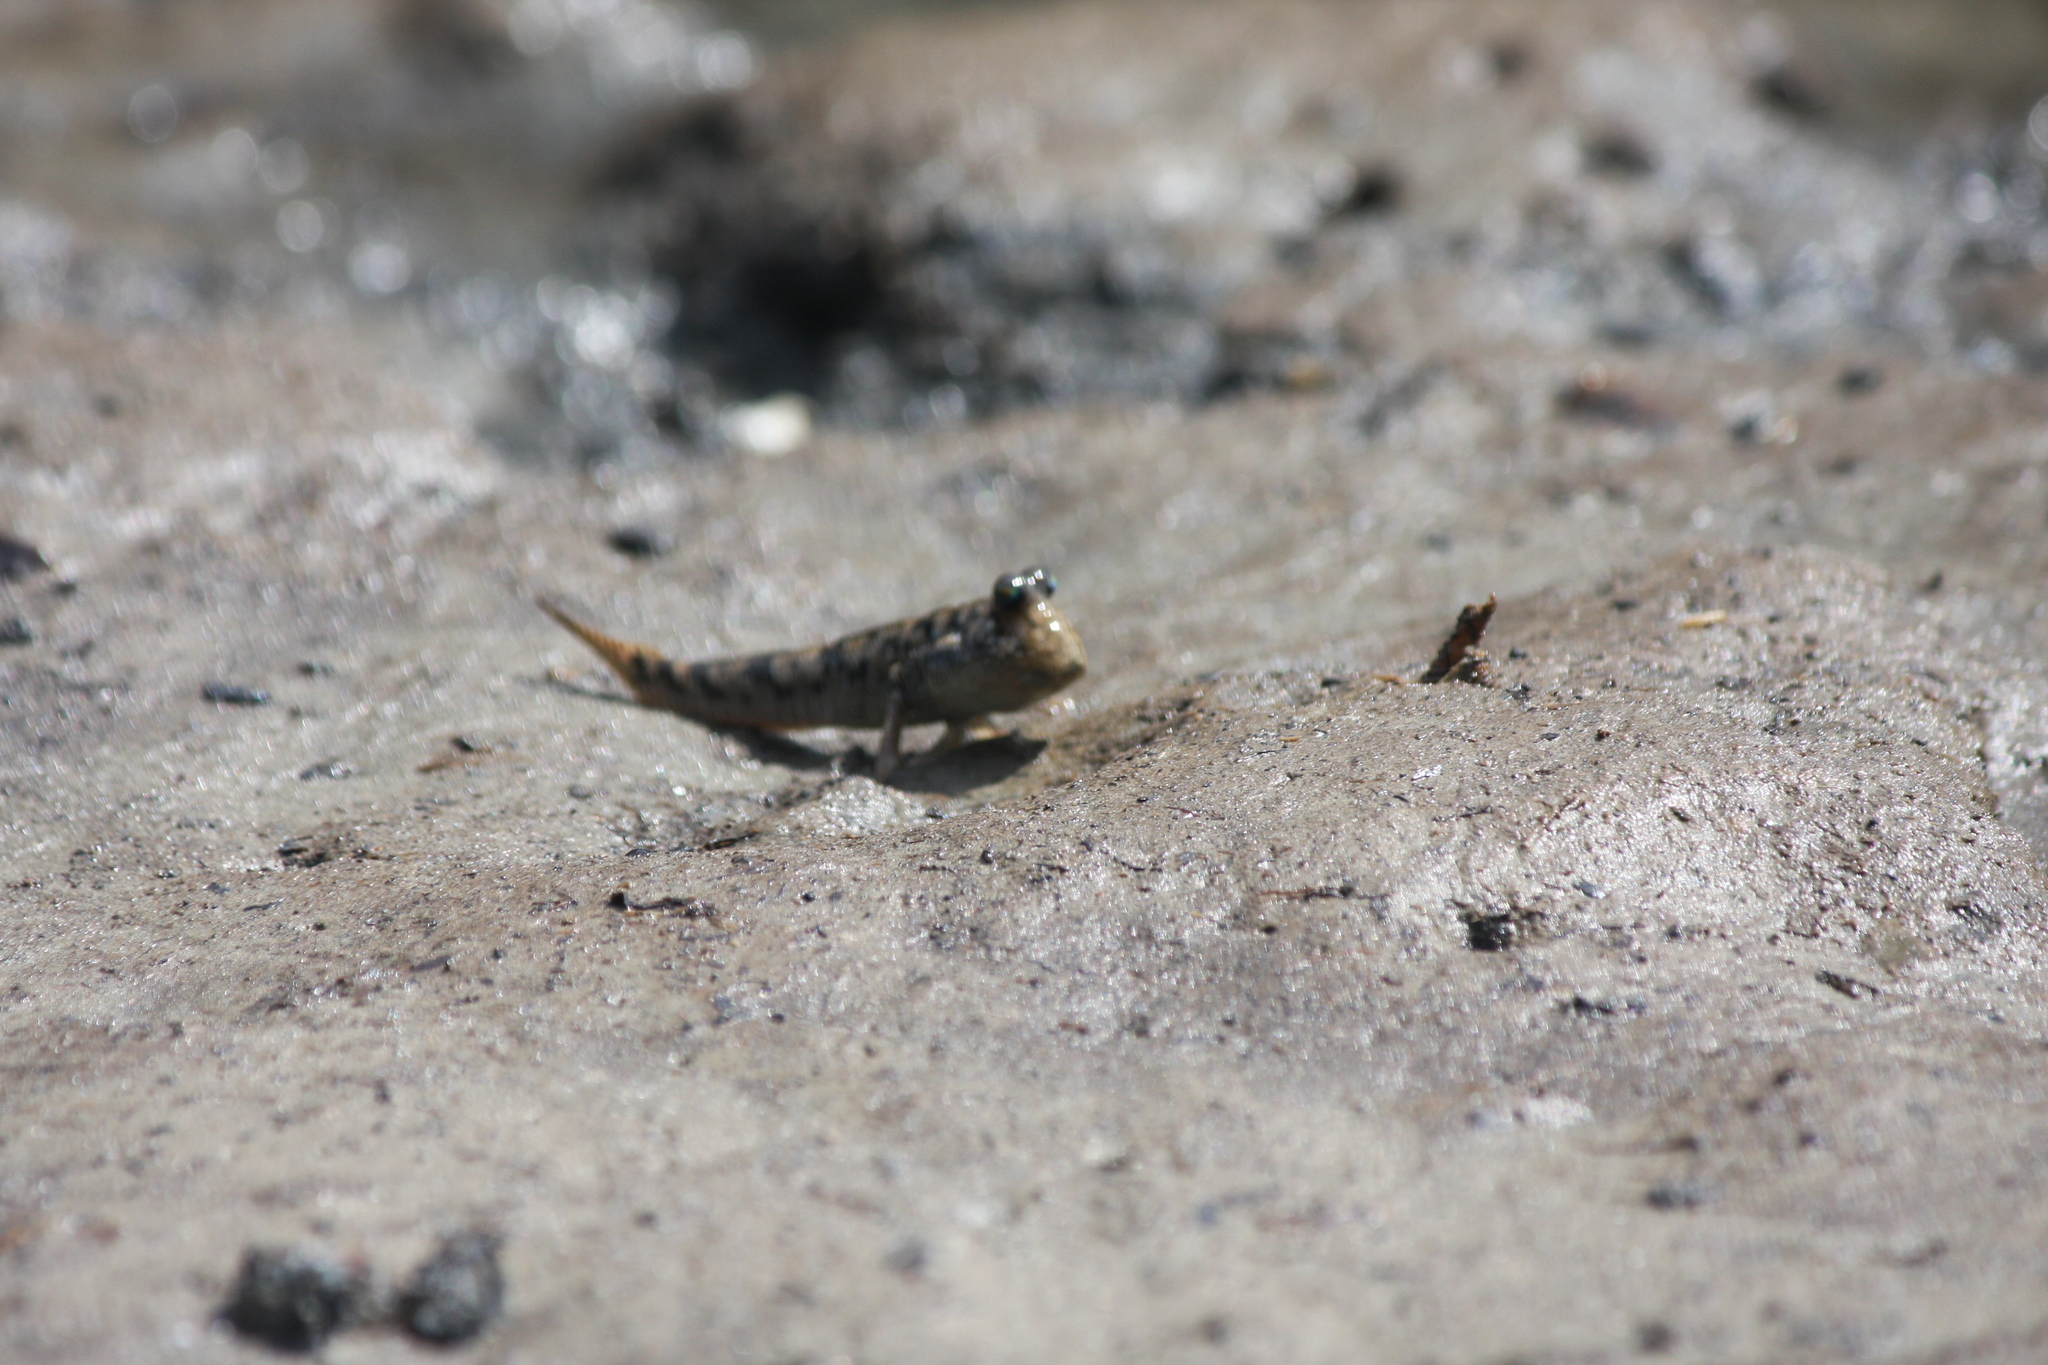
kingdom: Animalia
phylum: Chordata
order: Perciformes
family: Gobiidae
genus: Periophthalmus
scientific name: Periophthalmus argentilineatus
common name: Barred mudskipper
